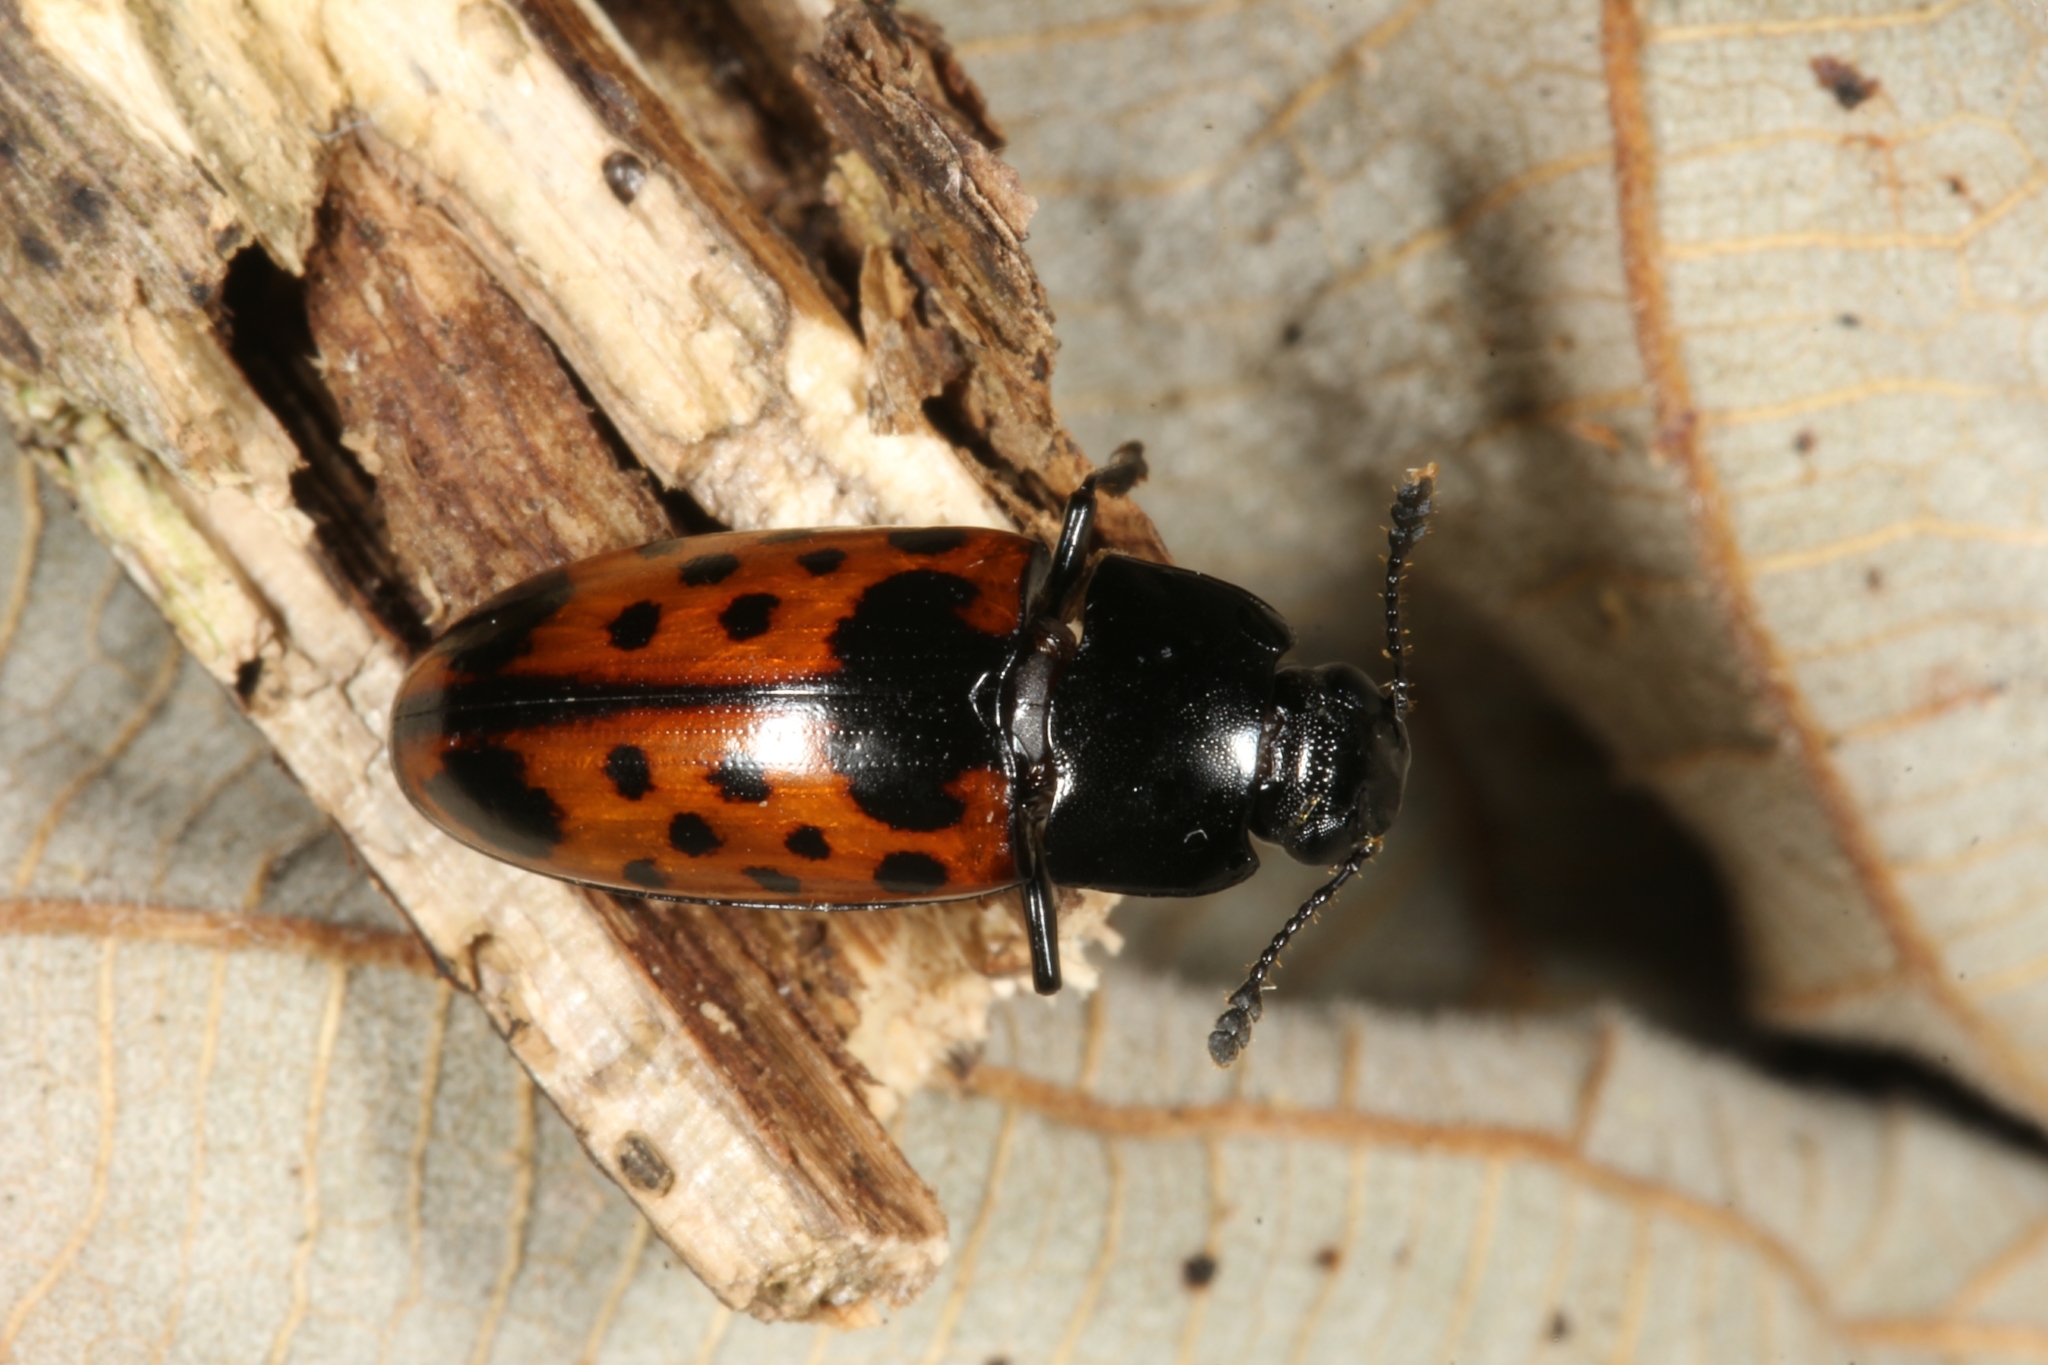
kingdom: Animalia
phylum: Arthropoda
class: Insecta
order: Coleoptera
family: Erotylidae
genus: Pselaphacus
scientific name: Pselaphacus signatus
